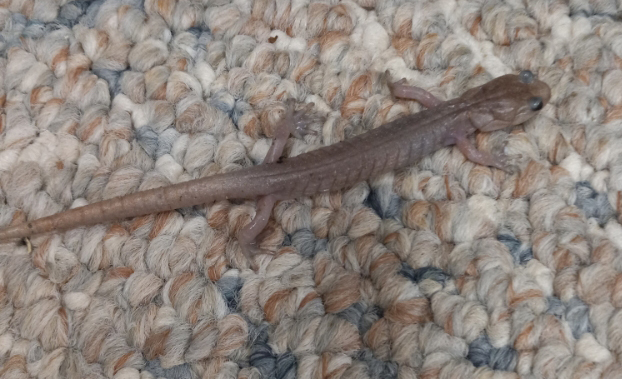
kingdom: Animalia
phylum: Chordata
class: Amphibia
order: Caudata
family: Plethodontidae
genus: Aneides
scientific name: Aneides ferreus
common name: Clouded salamander
